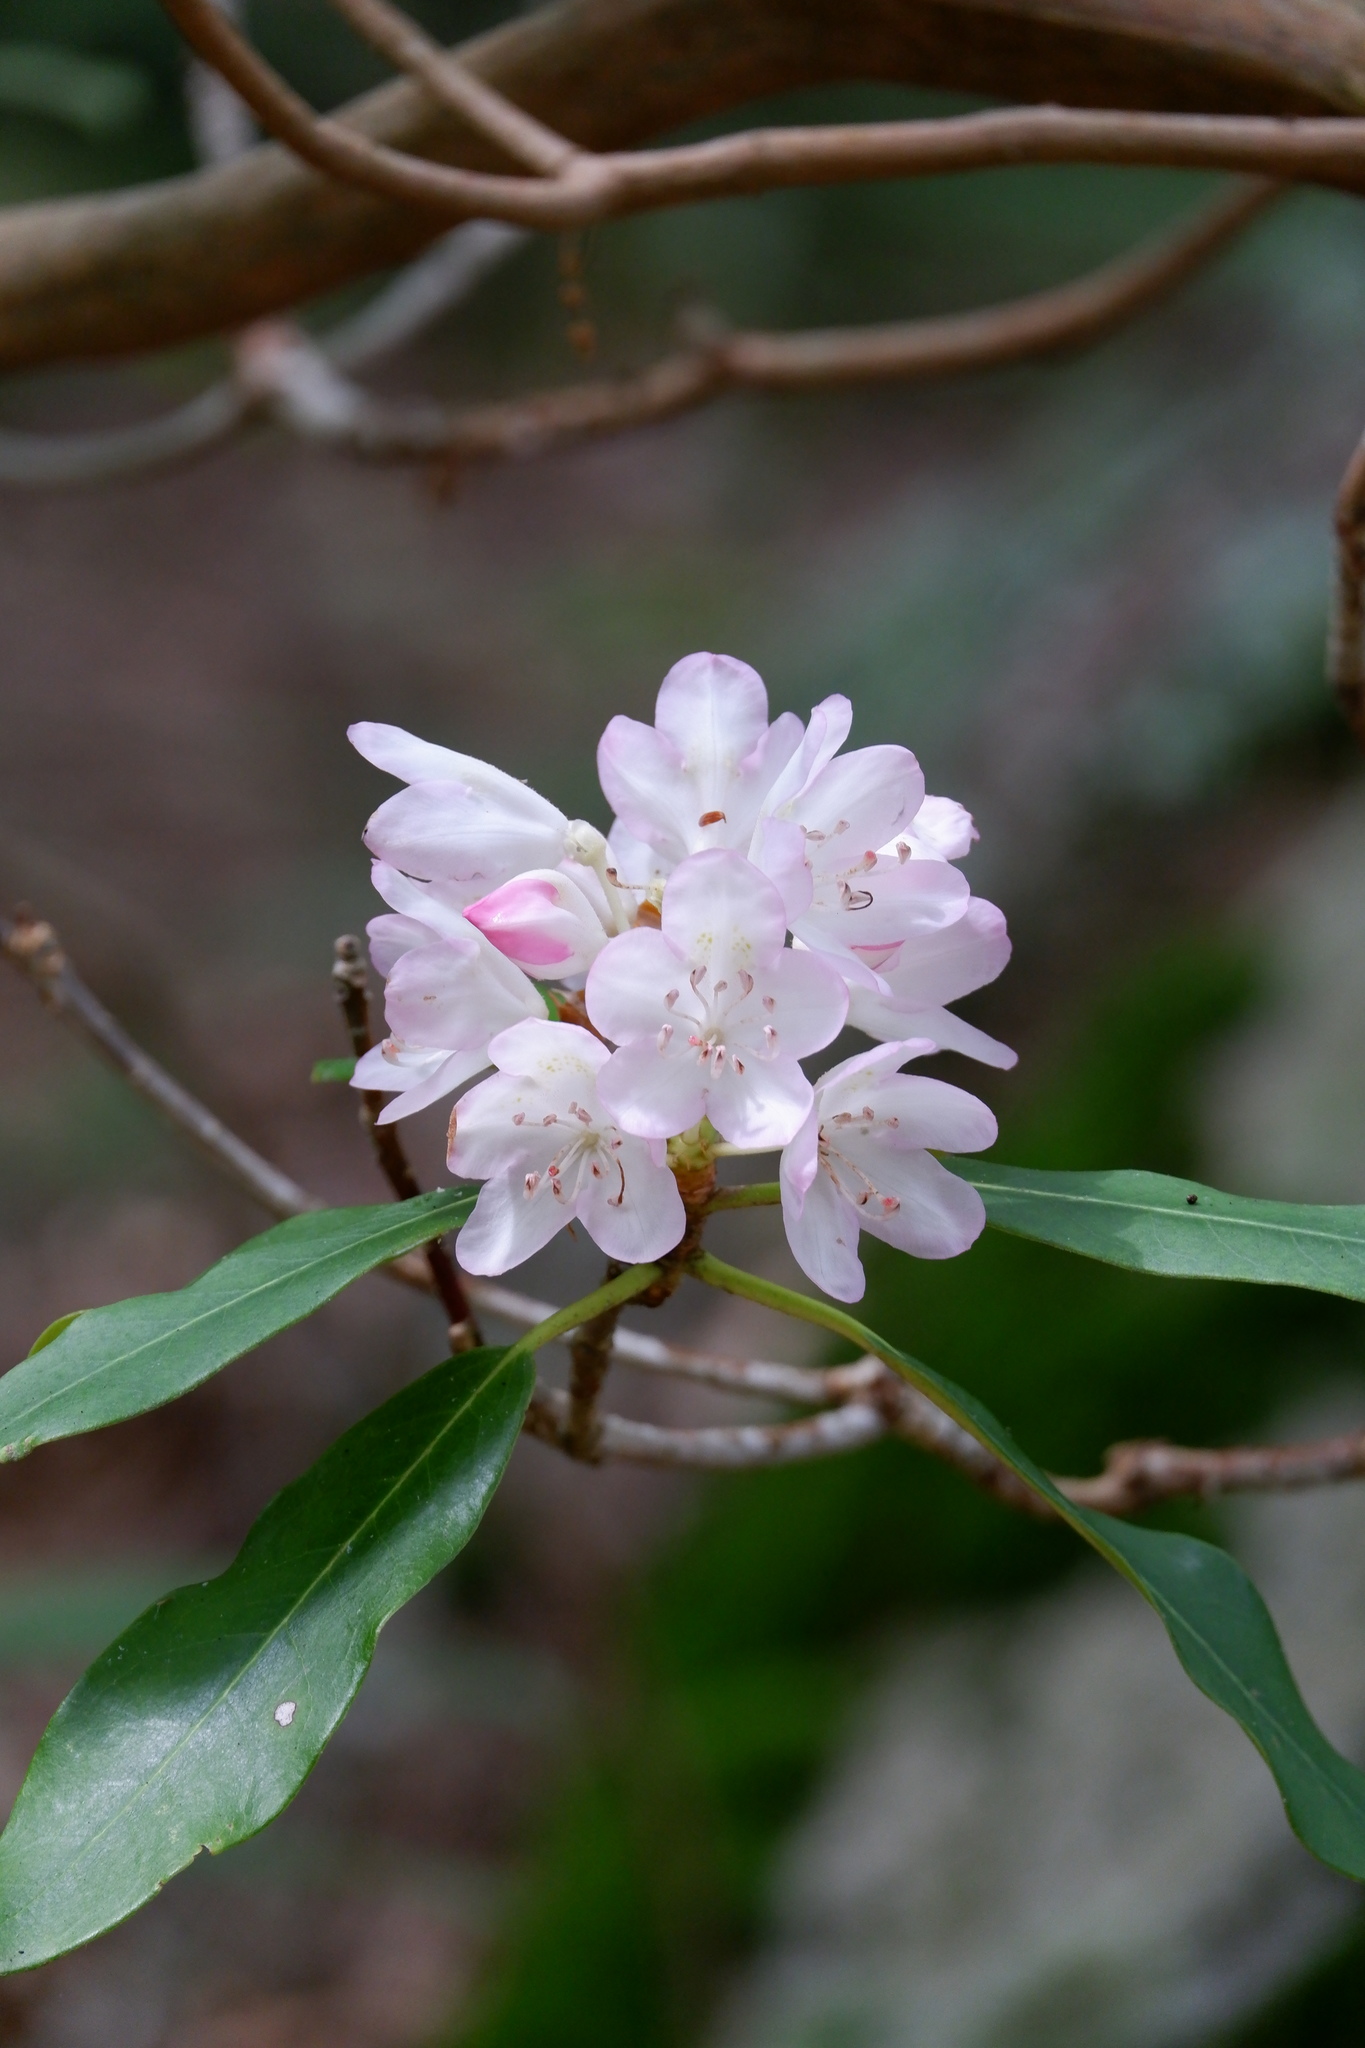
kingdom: Plantae
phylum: Tracheophyta
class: Magnoliopsida
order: Ericales
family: Ericaceae
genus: Rhododendron
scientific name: Rhododendron maximum
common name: Great rhododendron
